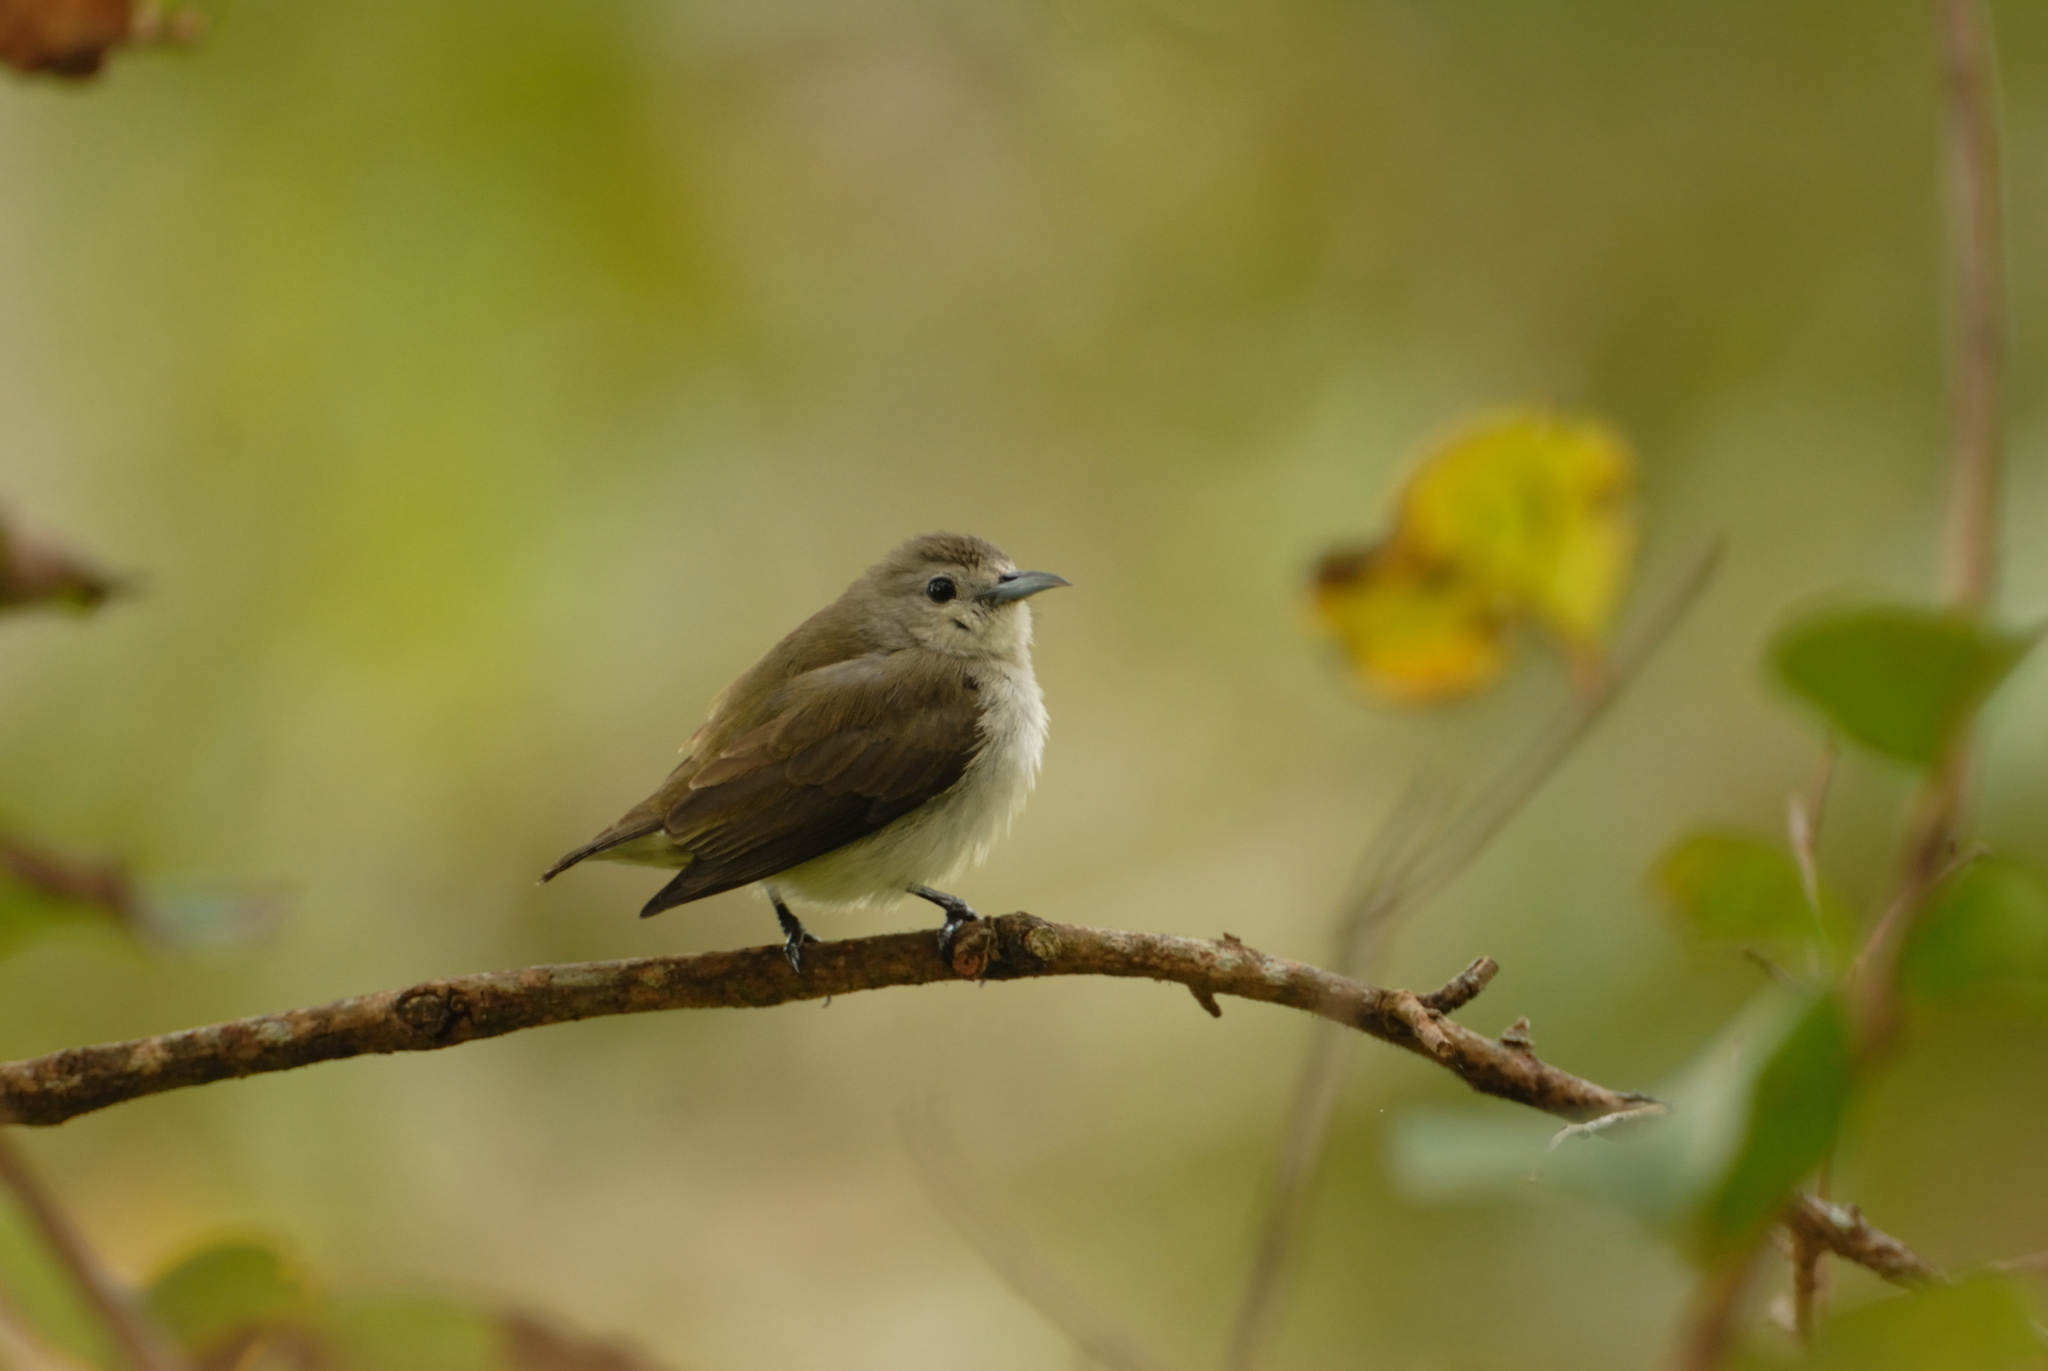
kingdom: Animalia
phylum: Chordata
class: Aves
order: Passeriformes
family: Dicaeidae
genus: Dicaeum
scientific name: Dicaeum concolor
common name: Nilgiri flowerpecker
